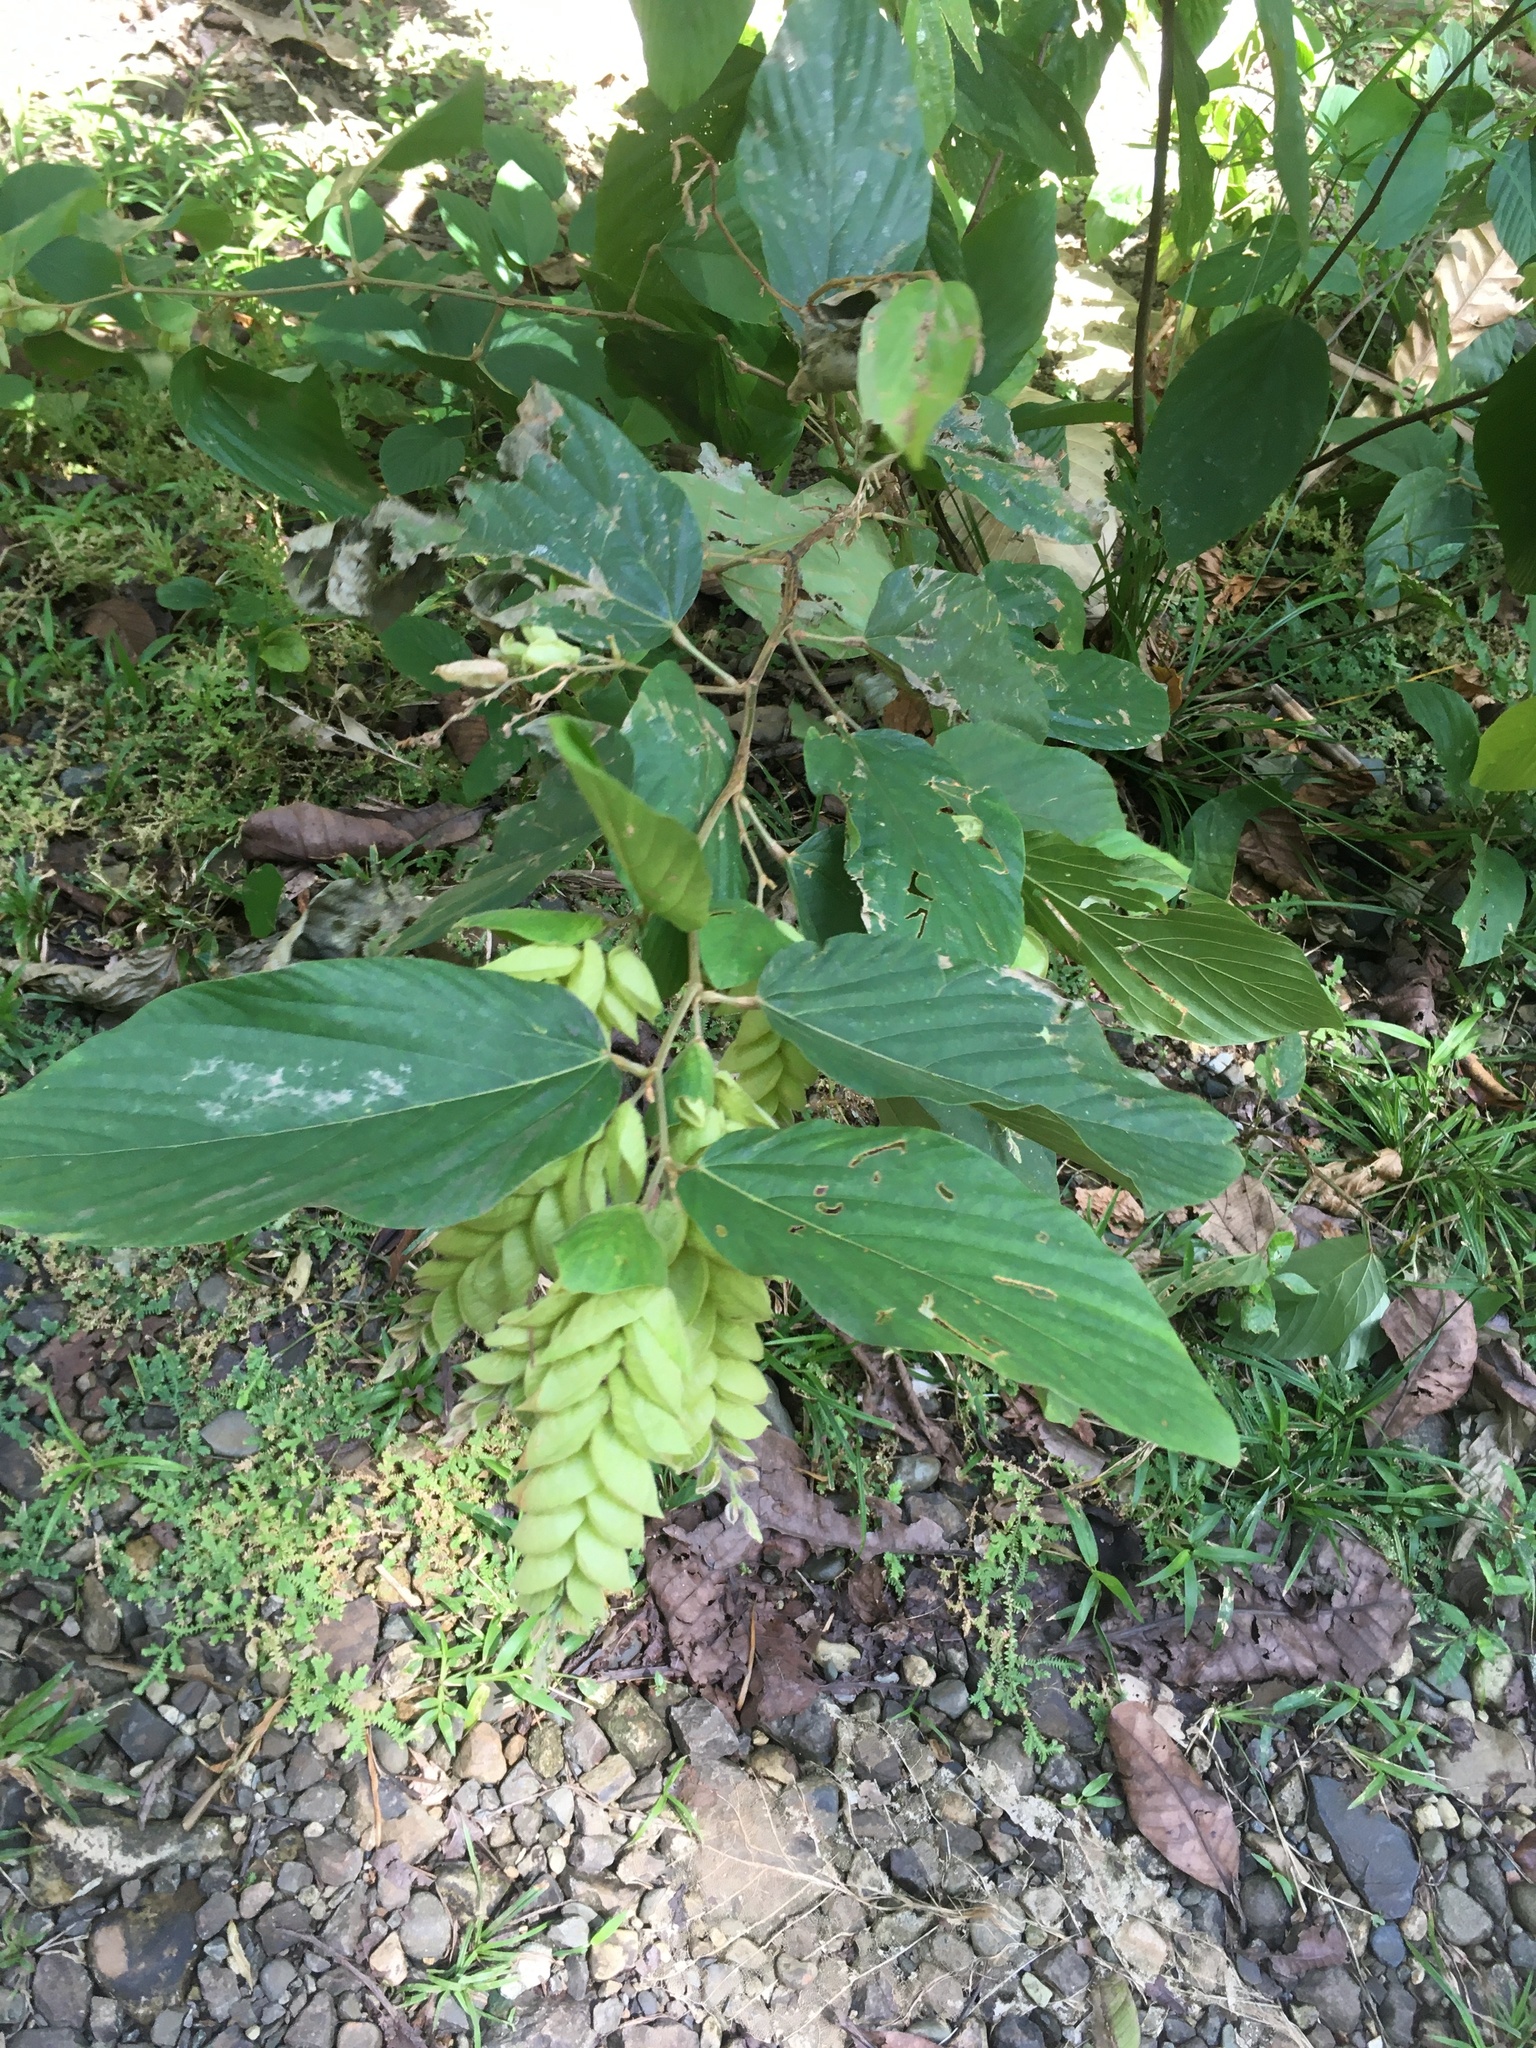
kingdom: Plantae
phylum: Tracheophyta
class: Magnoliopsida
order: Fabales
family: Fabaceae
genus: Flemingia
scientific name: Flemingia strobilifera
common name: Wild hops
